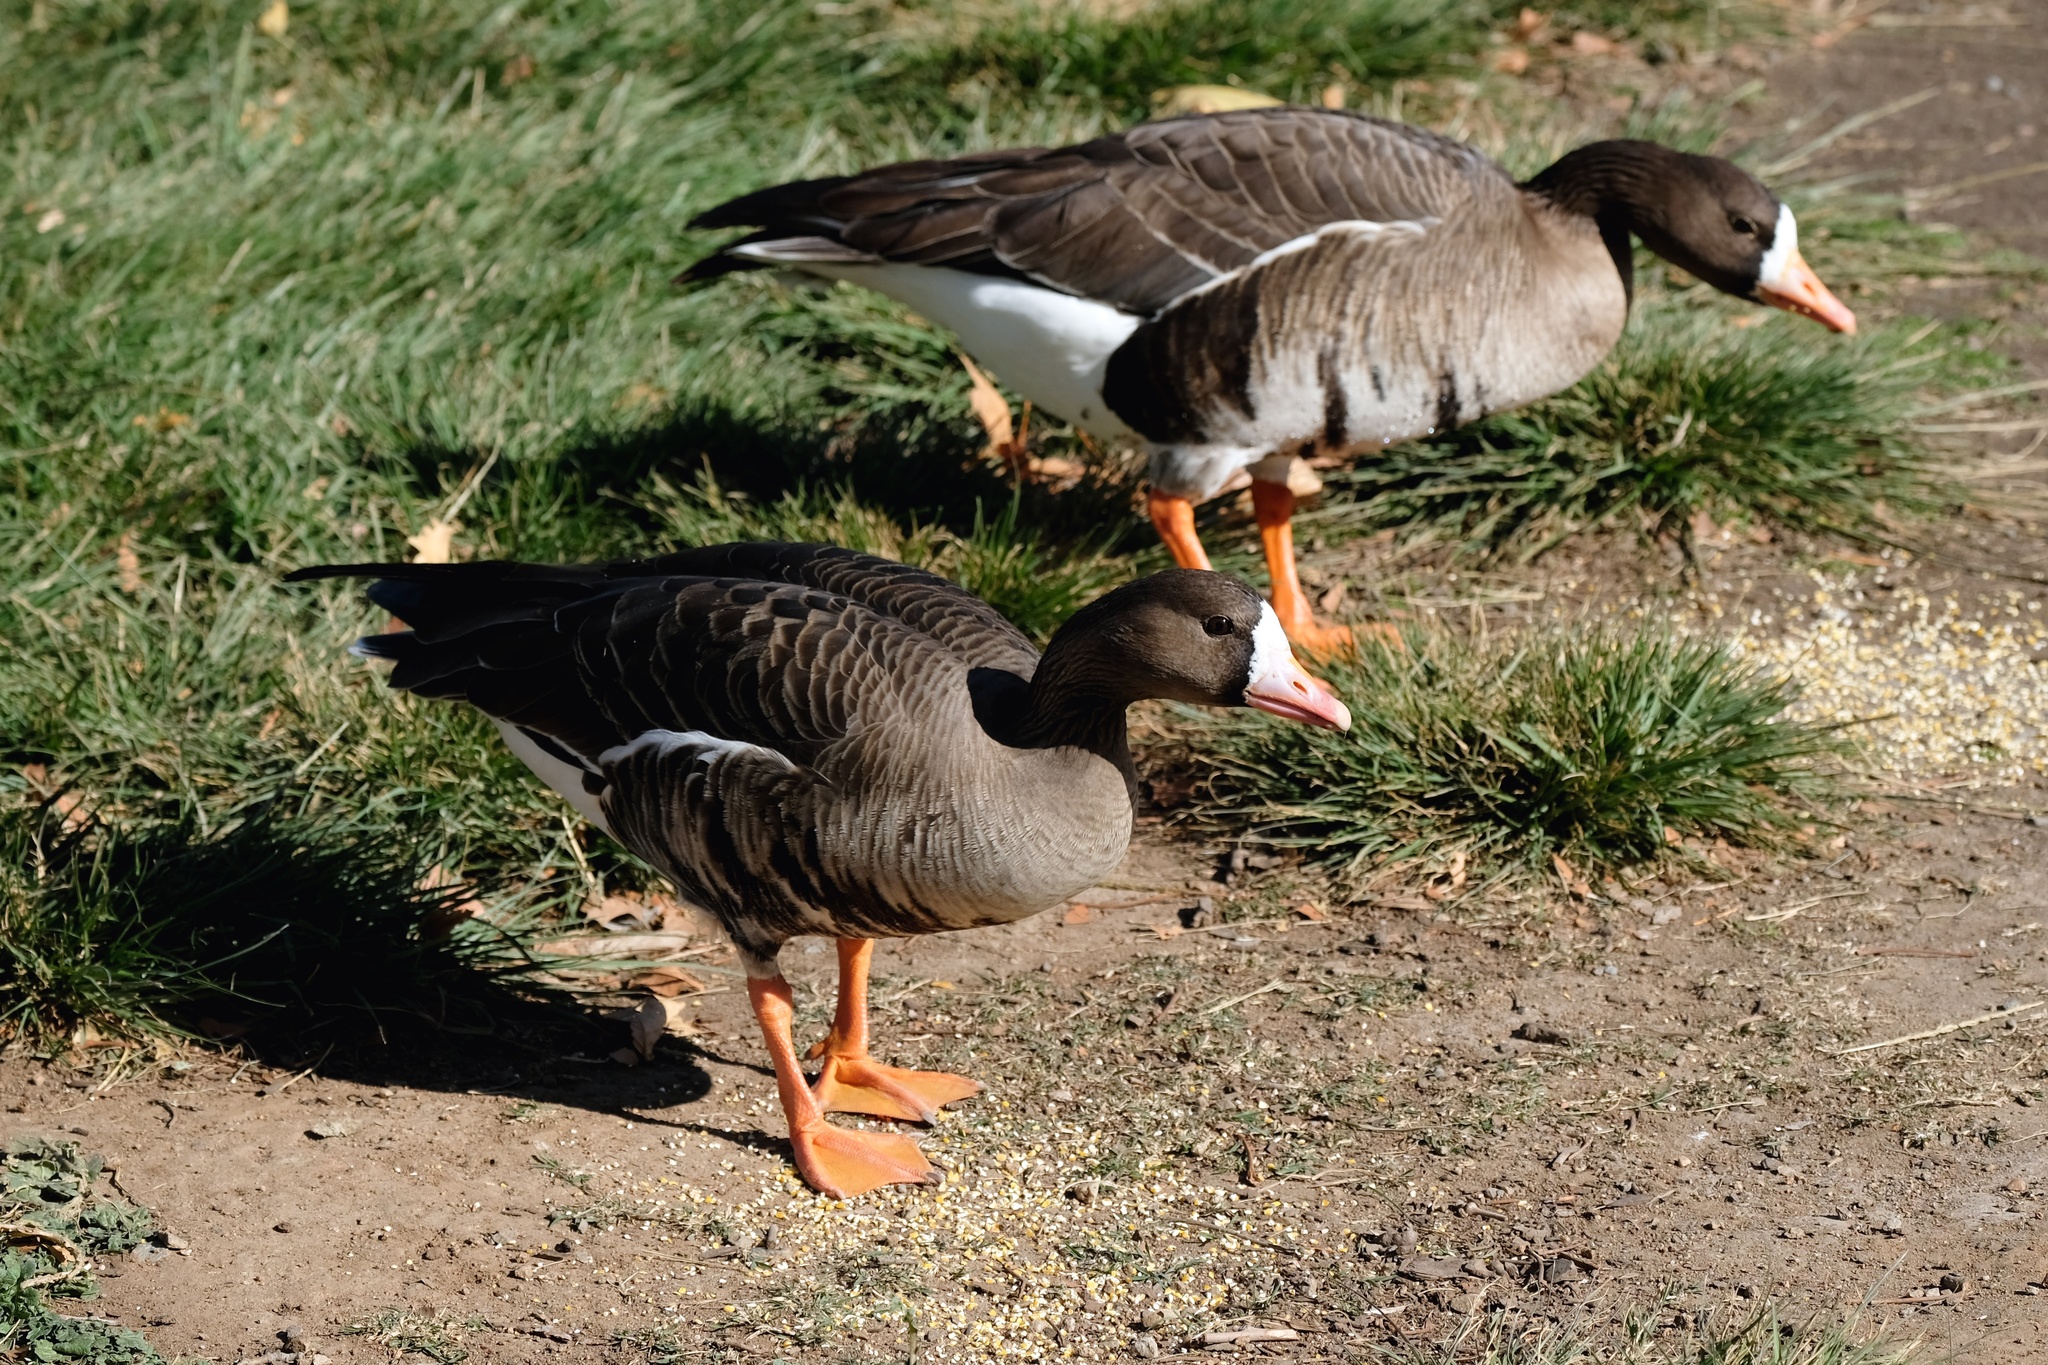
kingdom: Animalia
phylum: Chordata
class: Aves
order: Anseriformes
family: Anatidae
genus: Anser
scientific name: Anser albifrons
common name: Greater white-fronted goose
